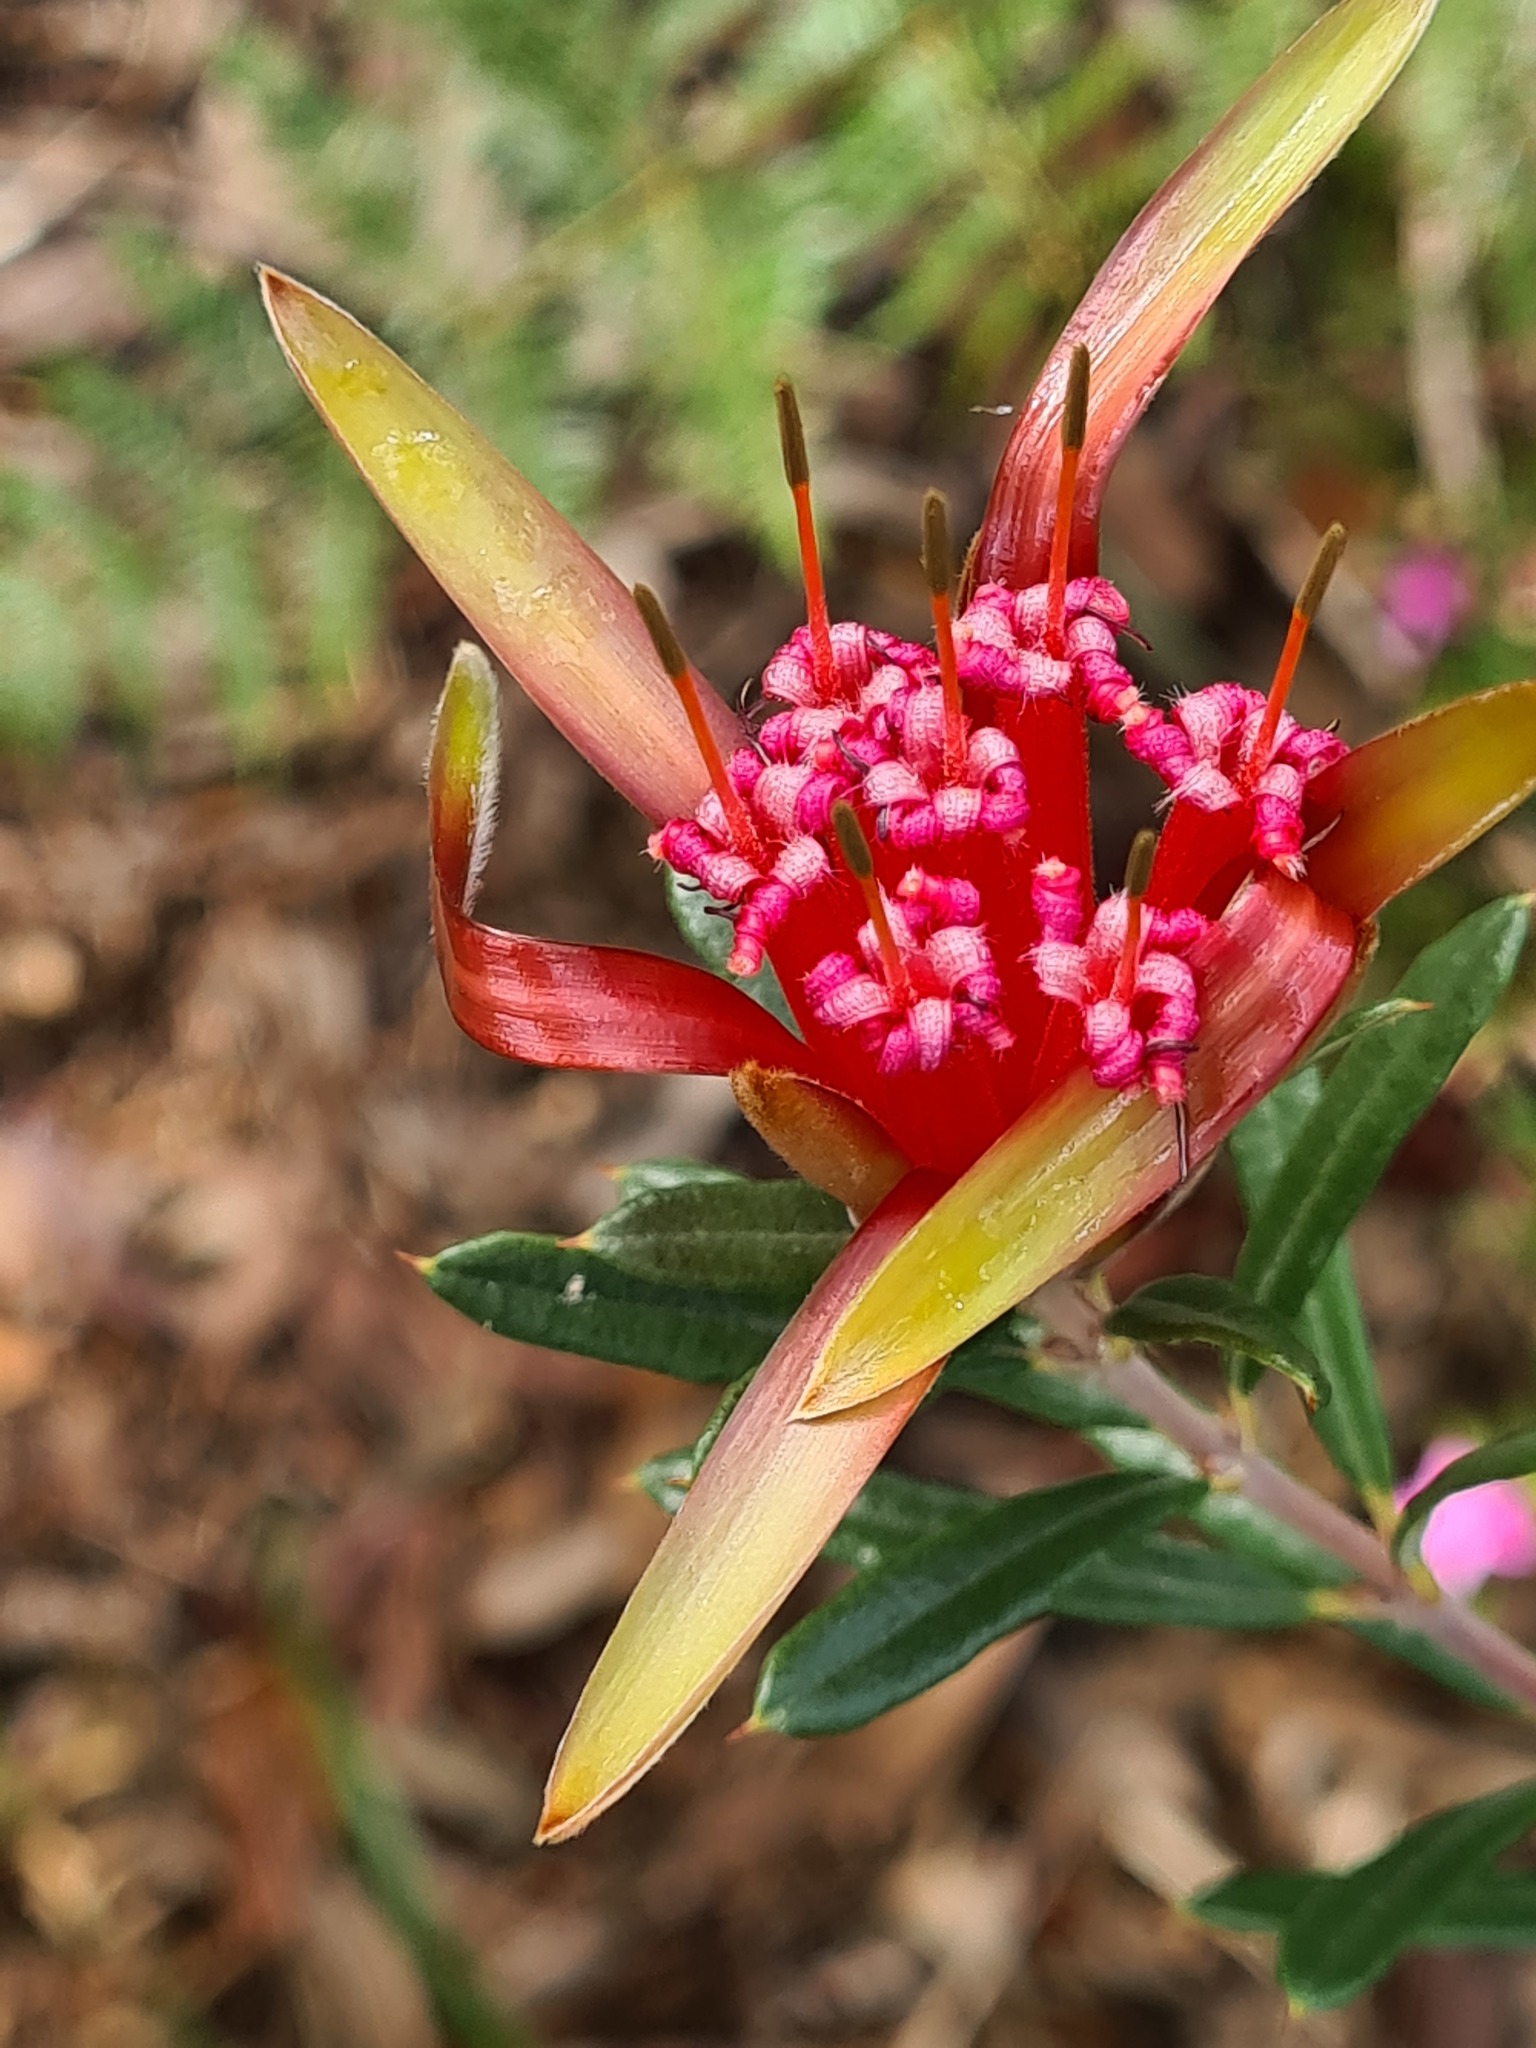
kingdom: Plantae
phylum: Tracheophyta
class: Magnoliopsida
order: Proteales
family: Proteaceae
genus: Lambertia
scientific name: Lambertia formosa
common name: Mountain-devil
